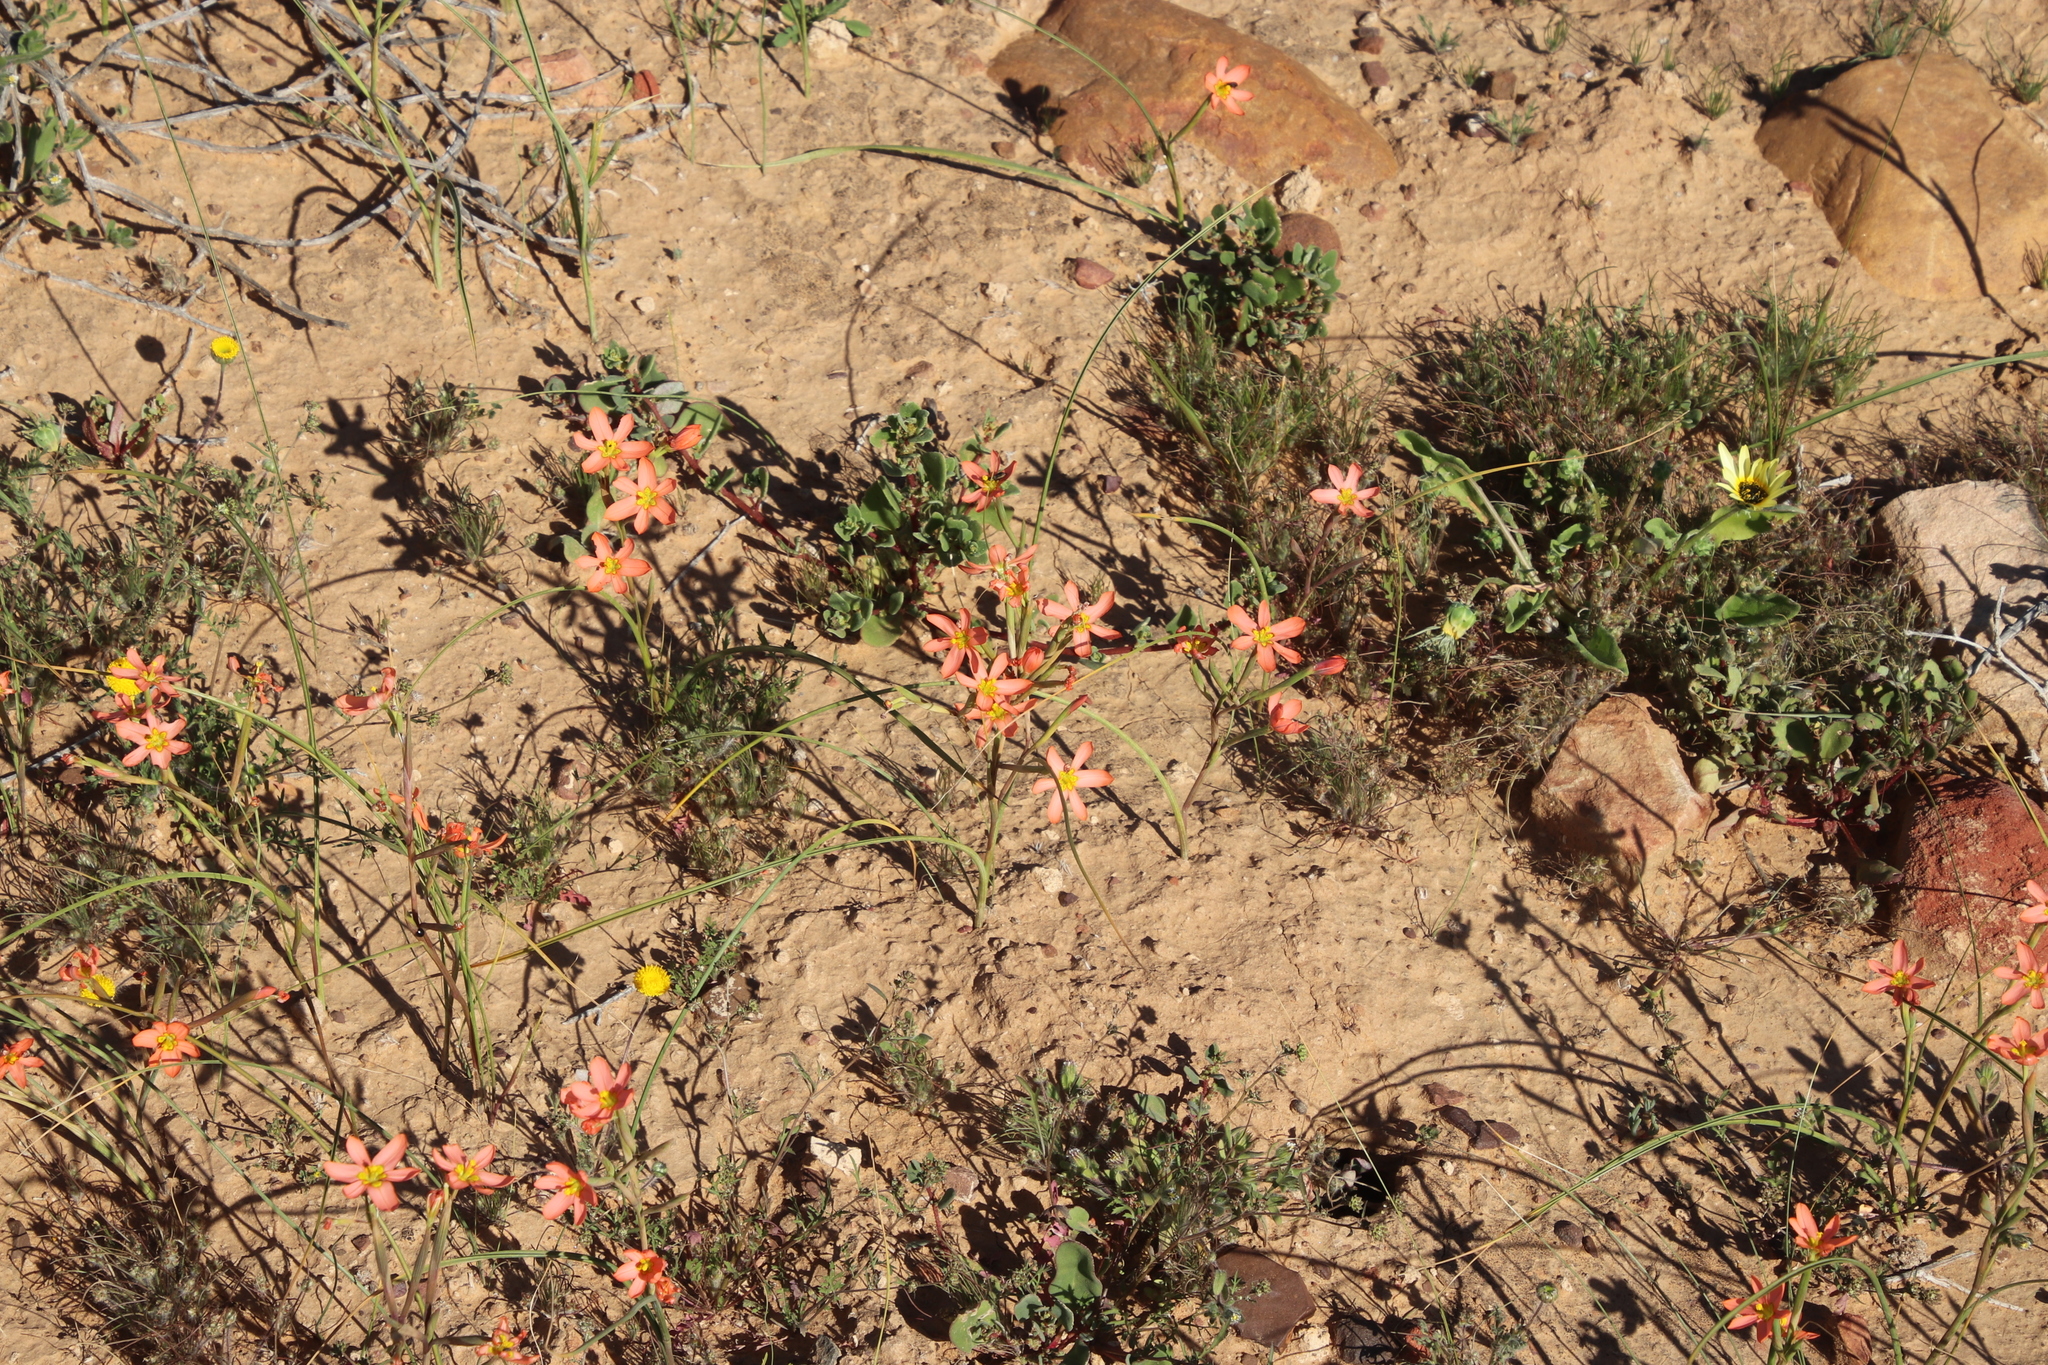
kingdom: Plantae
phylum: Tracheophyta
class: Liliopsida
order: Asparagales
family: Iridaceae
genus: Moraea
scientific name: Moraea miniata
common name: Two-leaf cape-tulip
